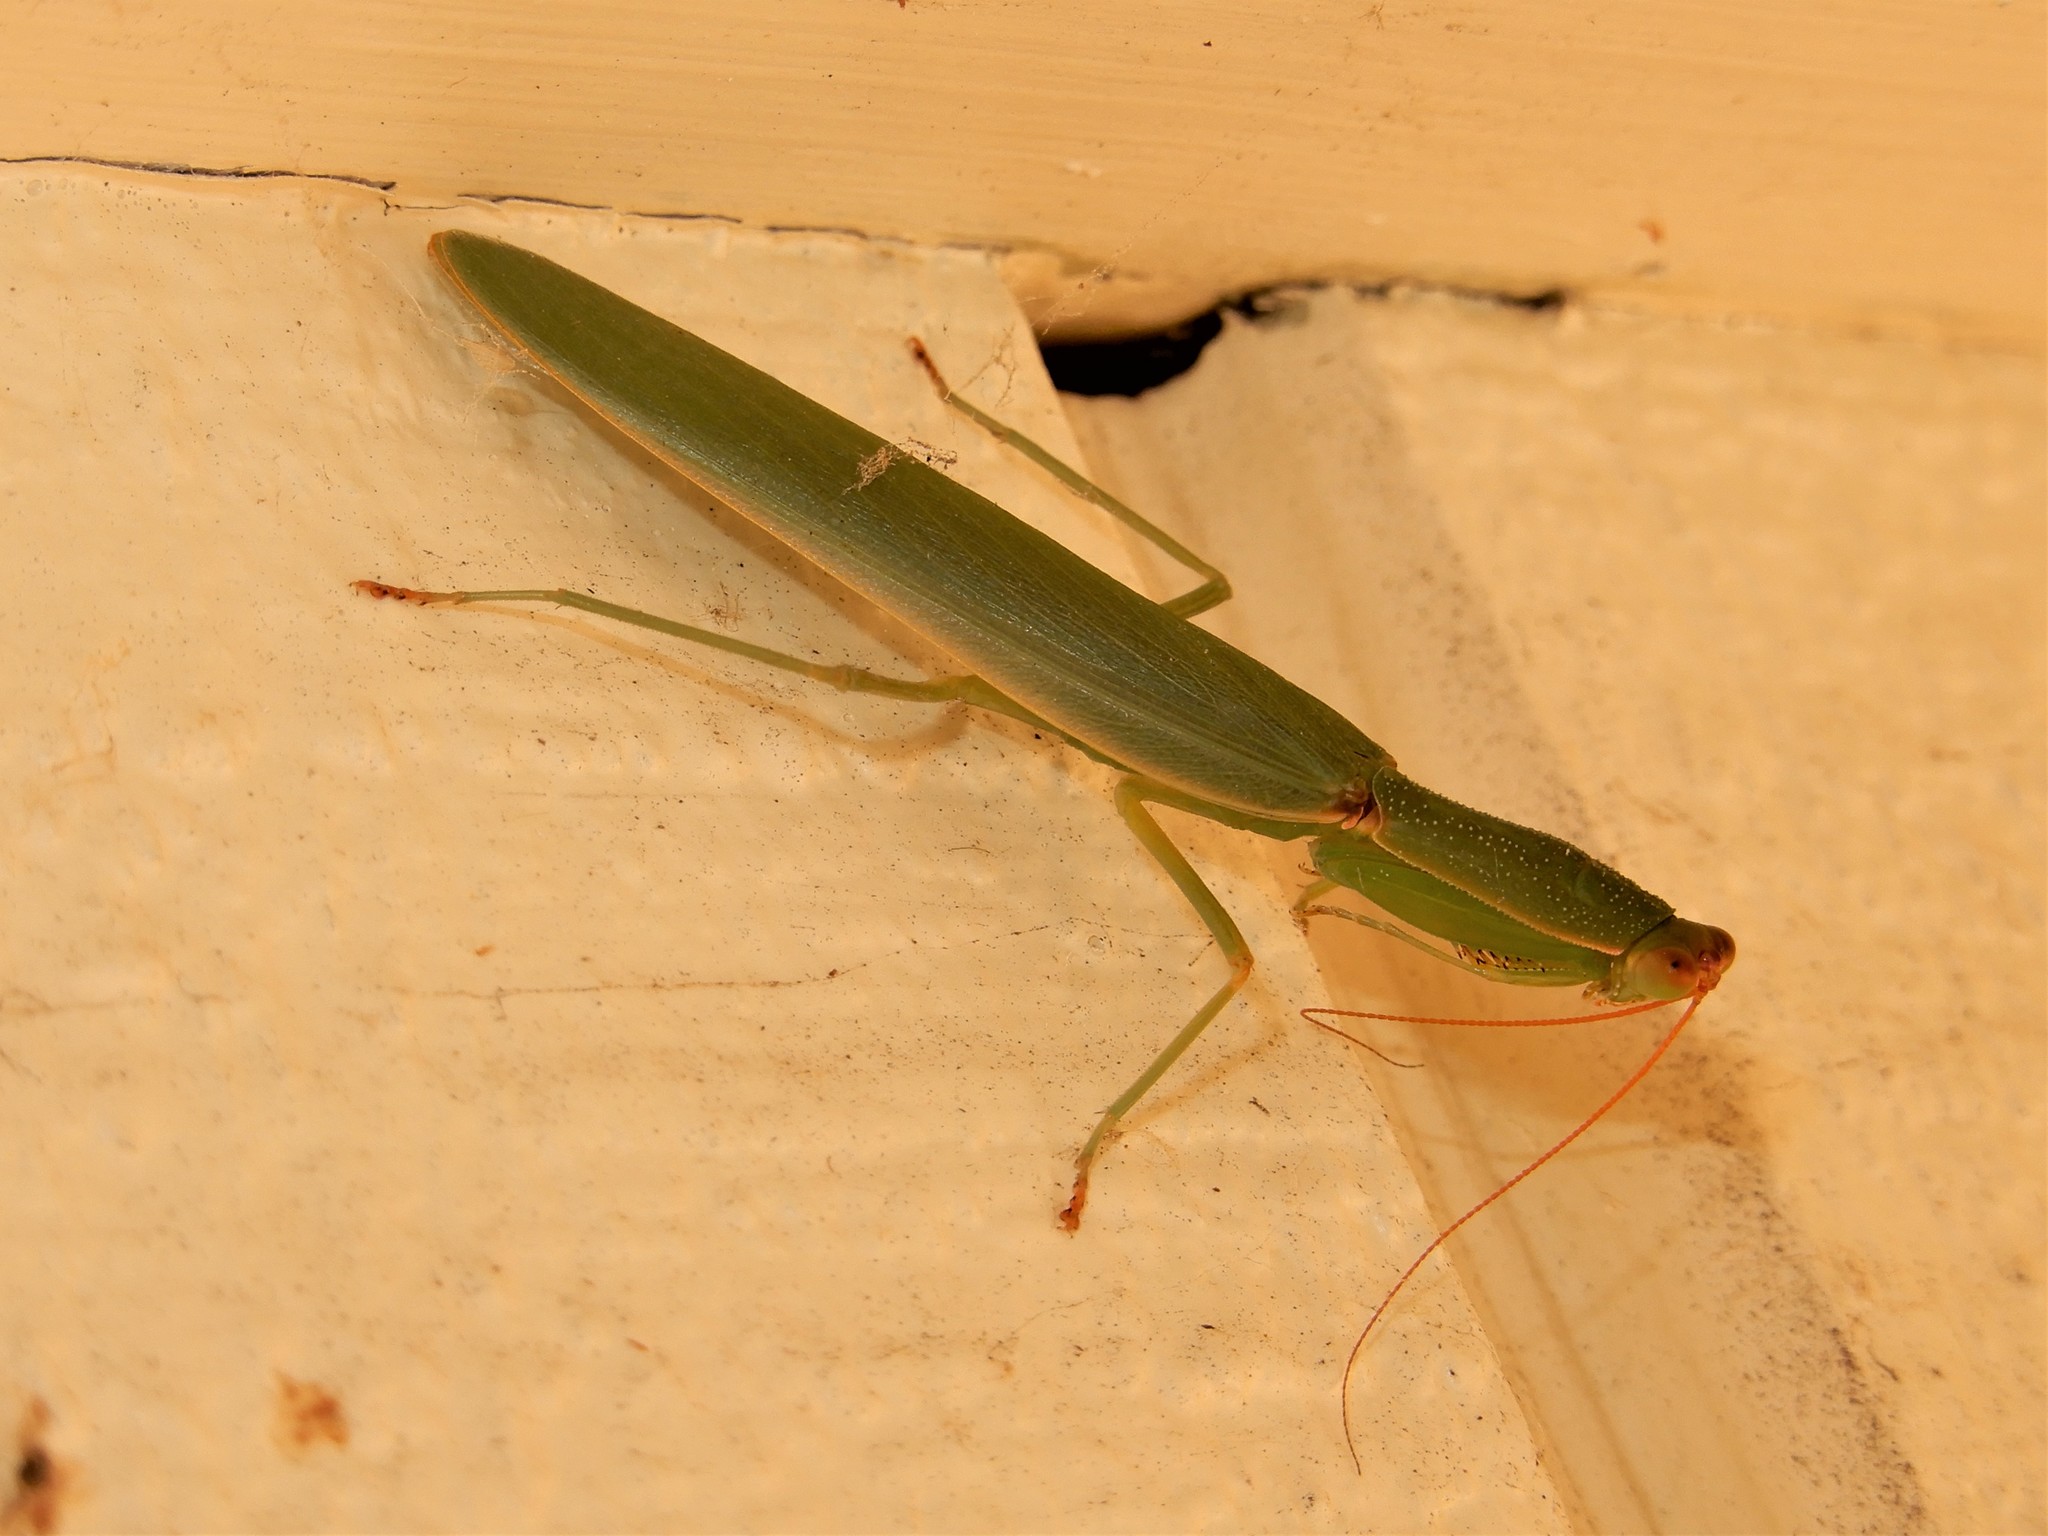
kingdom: Animalia
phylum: Arthropoda
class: Insecta
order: Mantodea
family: Mantidae
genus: Orthodera
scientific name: Orthodera novaezealandiae
